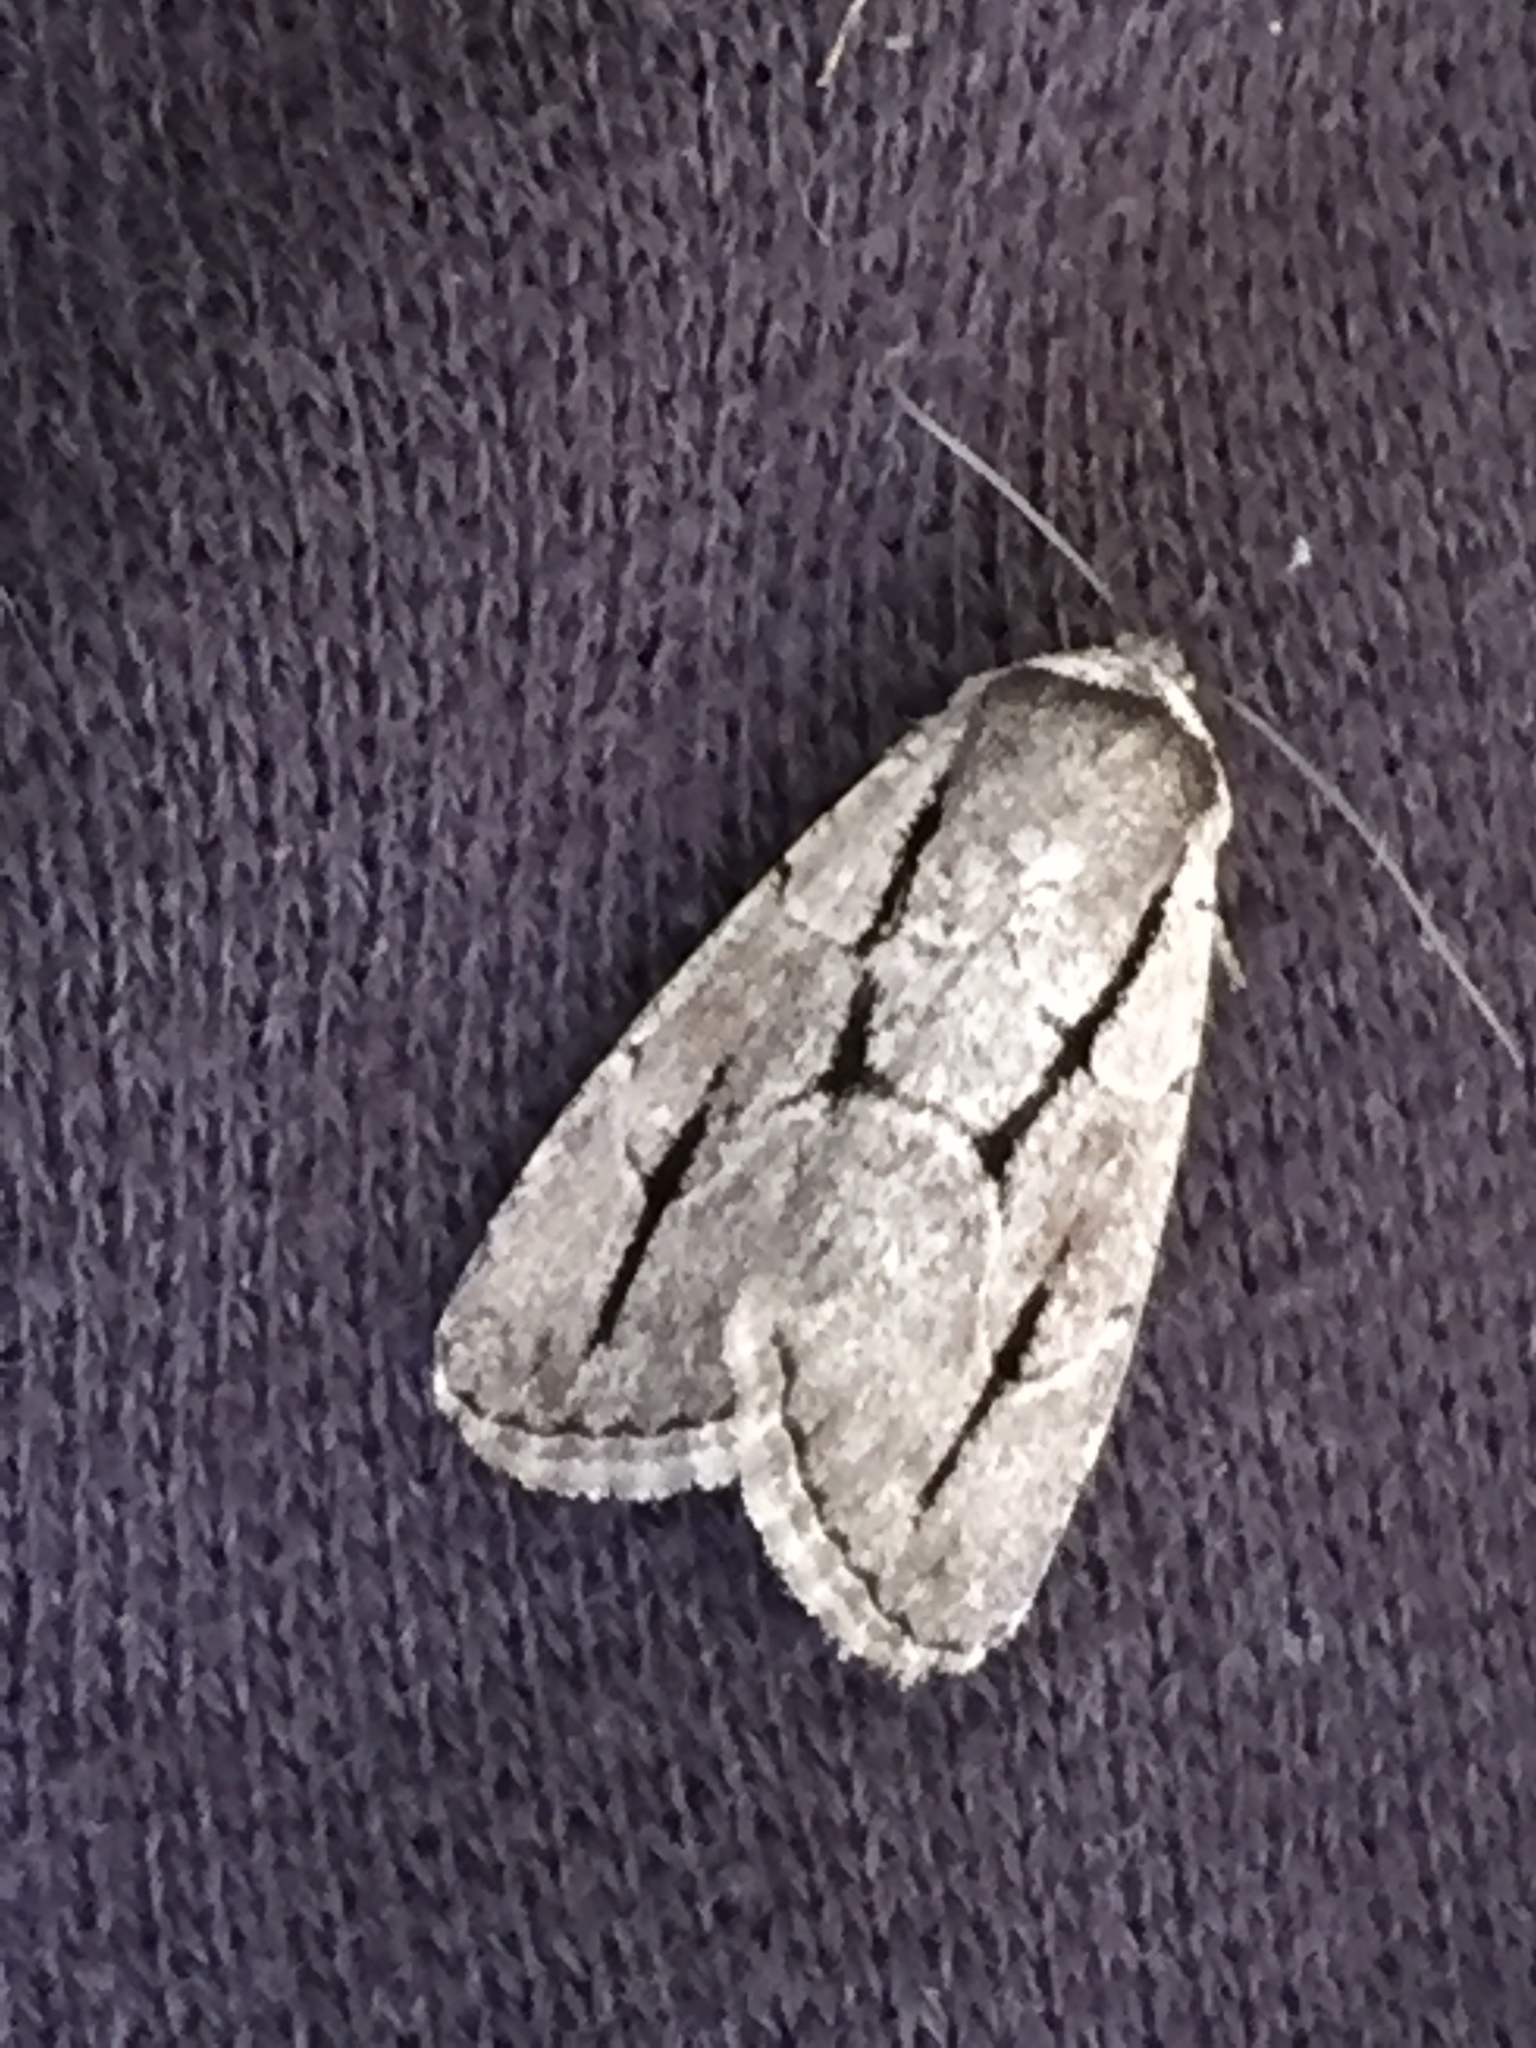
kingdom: Animalia
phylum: Arthropoda
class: Insecta
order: Lepidoptera
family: Noctuidae
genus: Sympistis
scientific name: Sympistis dinalda
